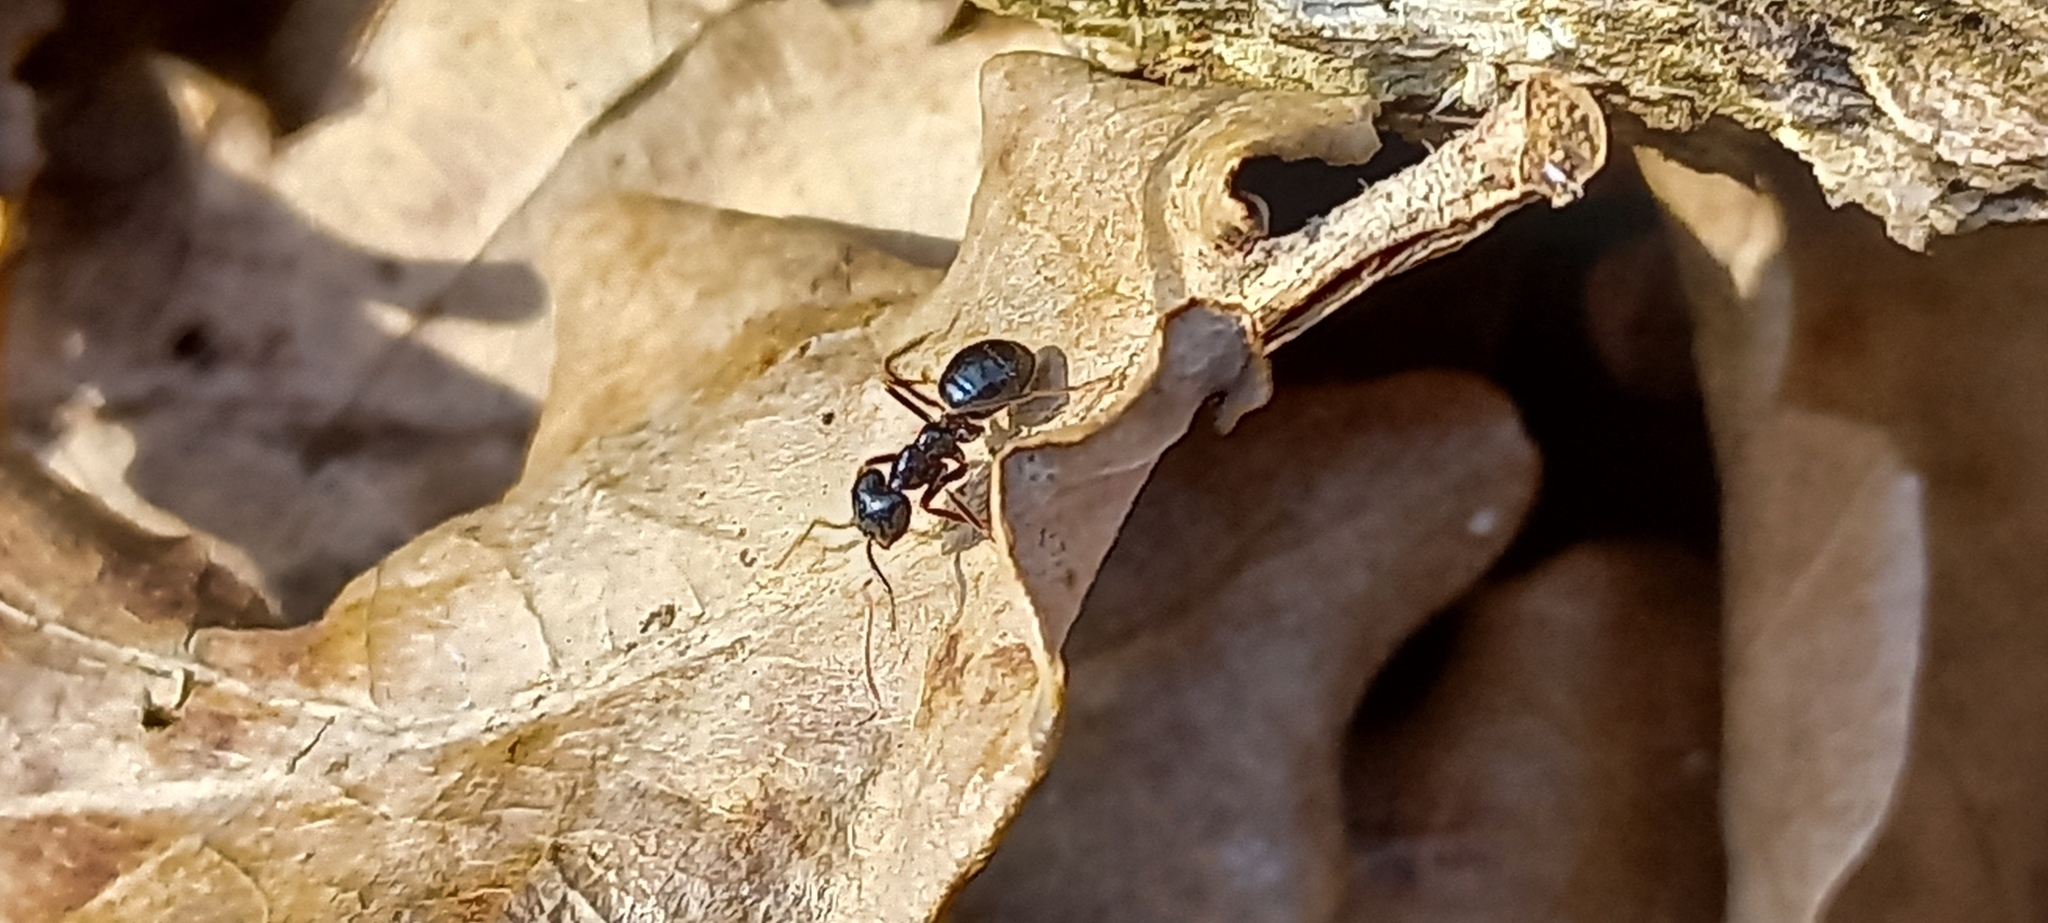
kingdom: Animalia
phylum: Arthropoda
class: Insecta
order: Hymenoptera
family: Formicidae
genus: Lasius
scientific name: Lasius fuliginosus
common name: Jet ant
